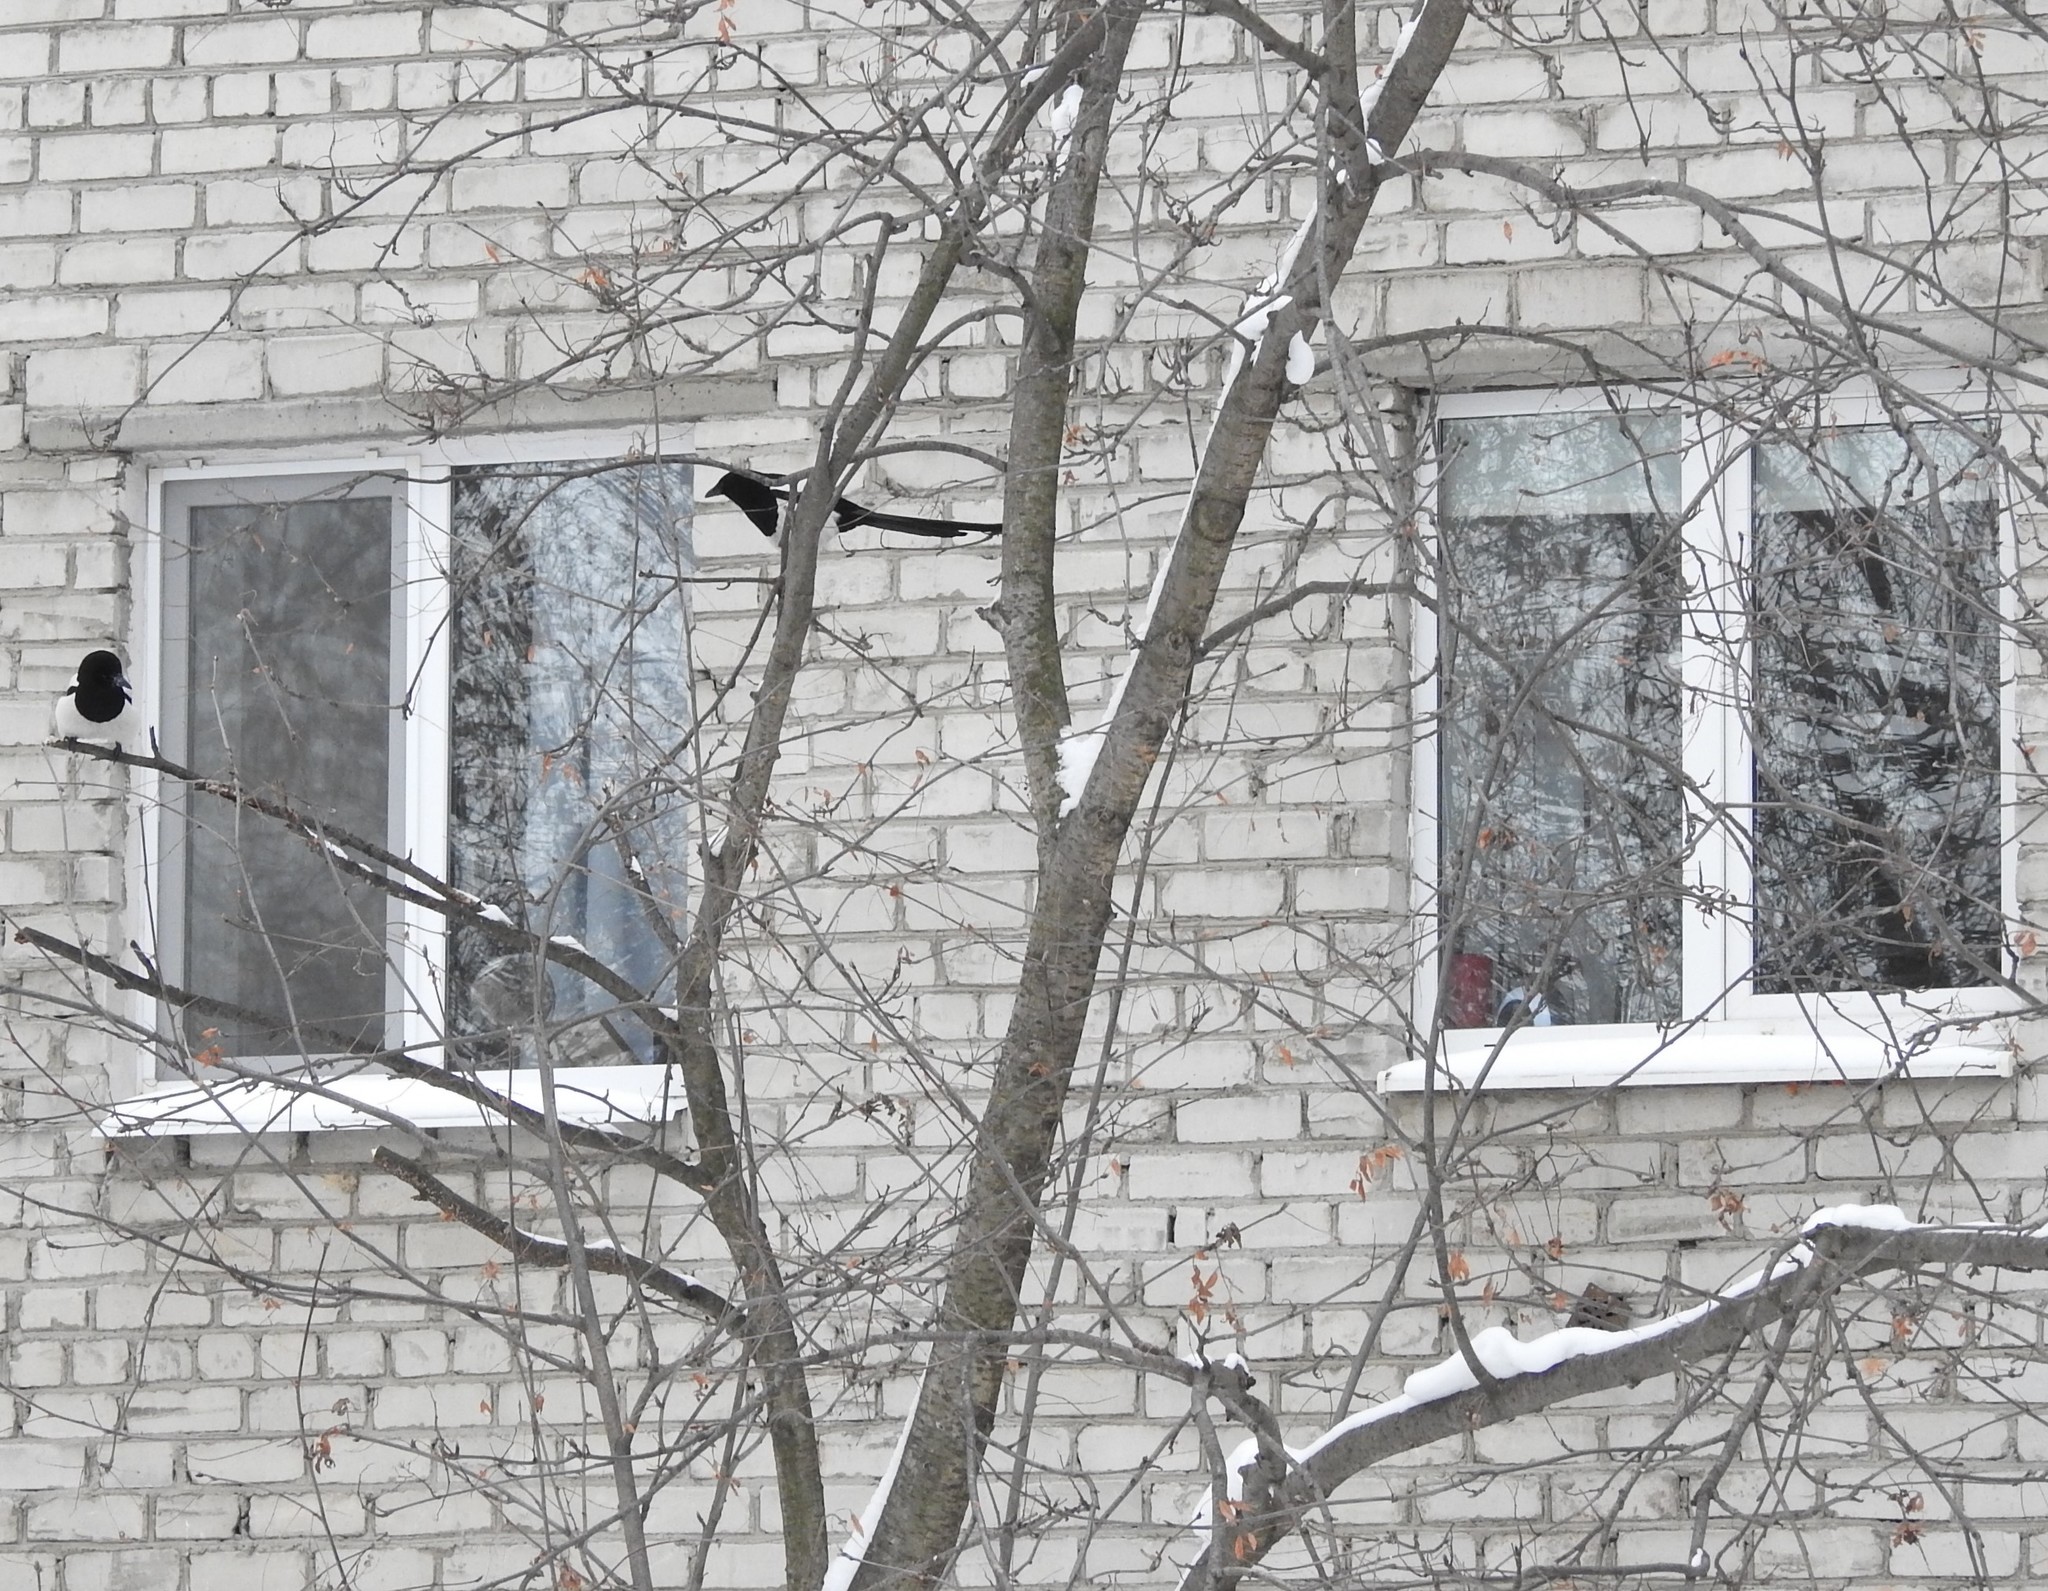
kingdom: Animalia
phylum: Chordata
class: Aves
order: Passeriformes
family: Corvidae
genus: Pica
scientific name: Pica pica
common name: Eurasian magpie
